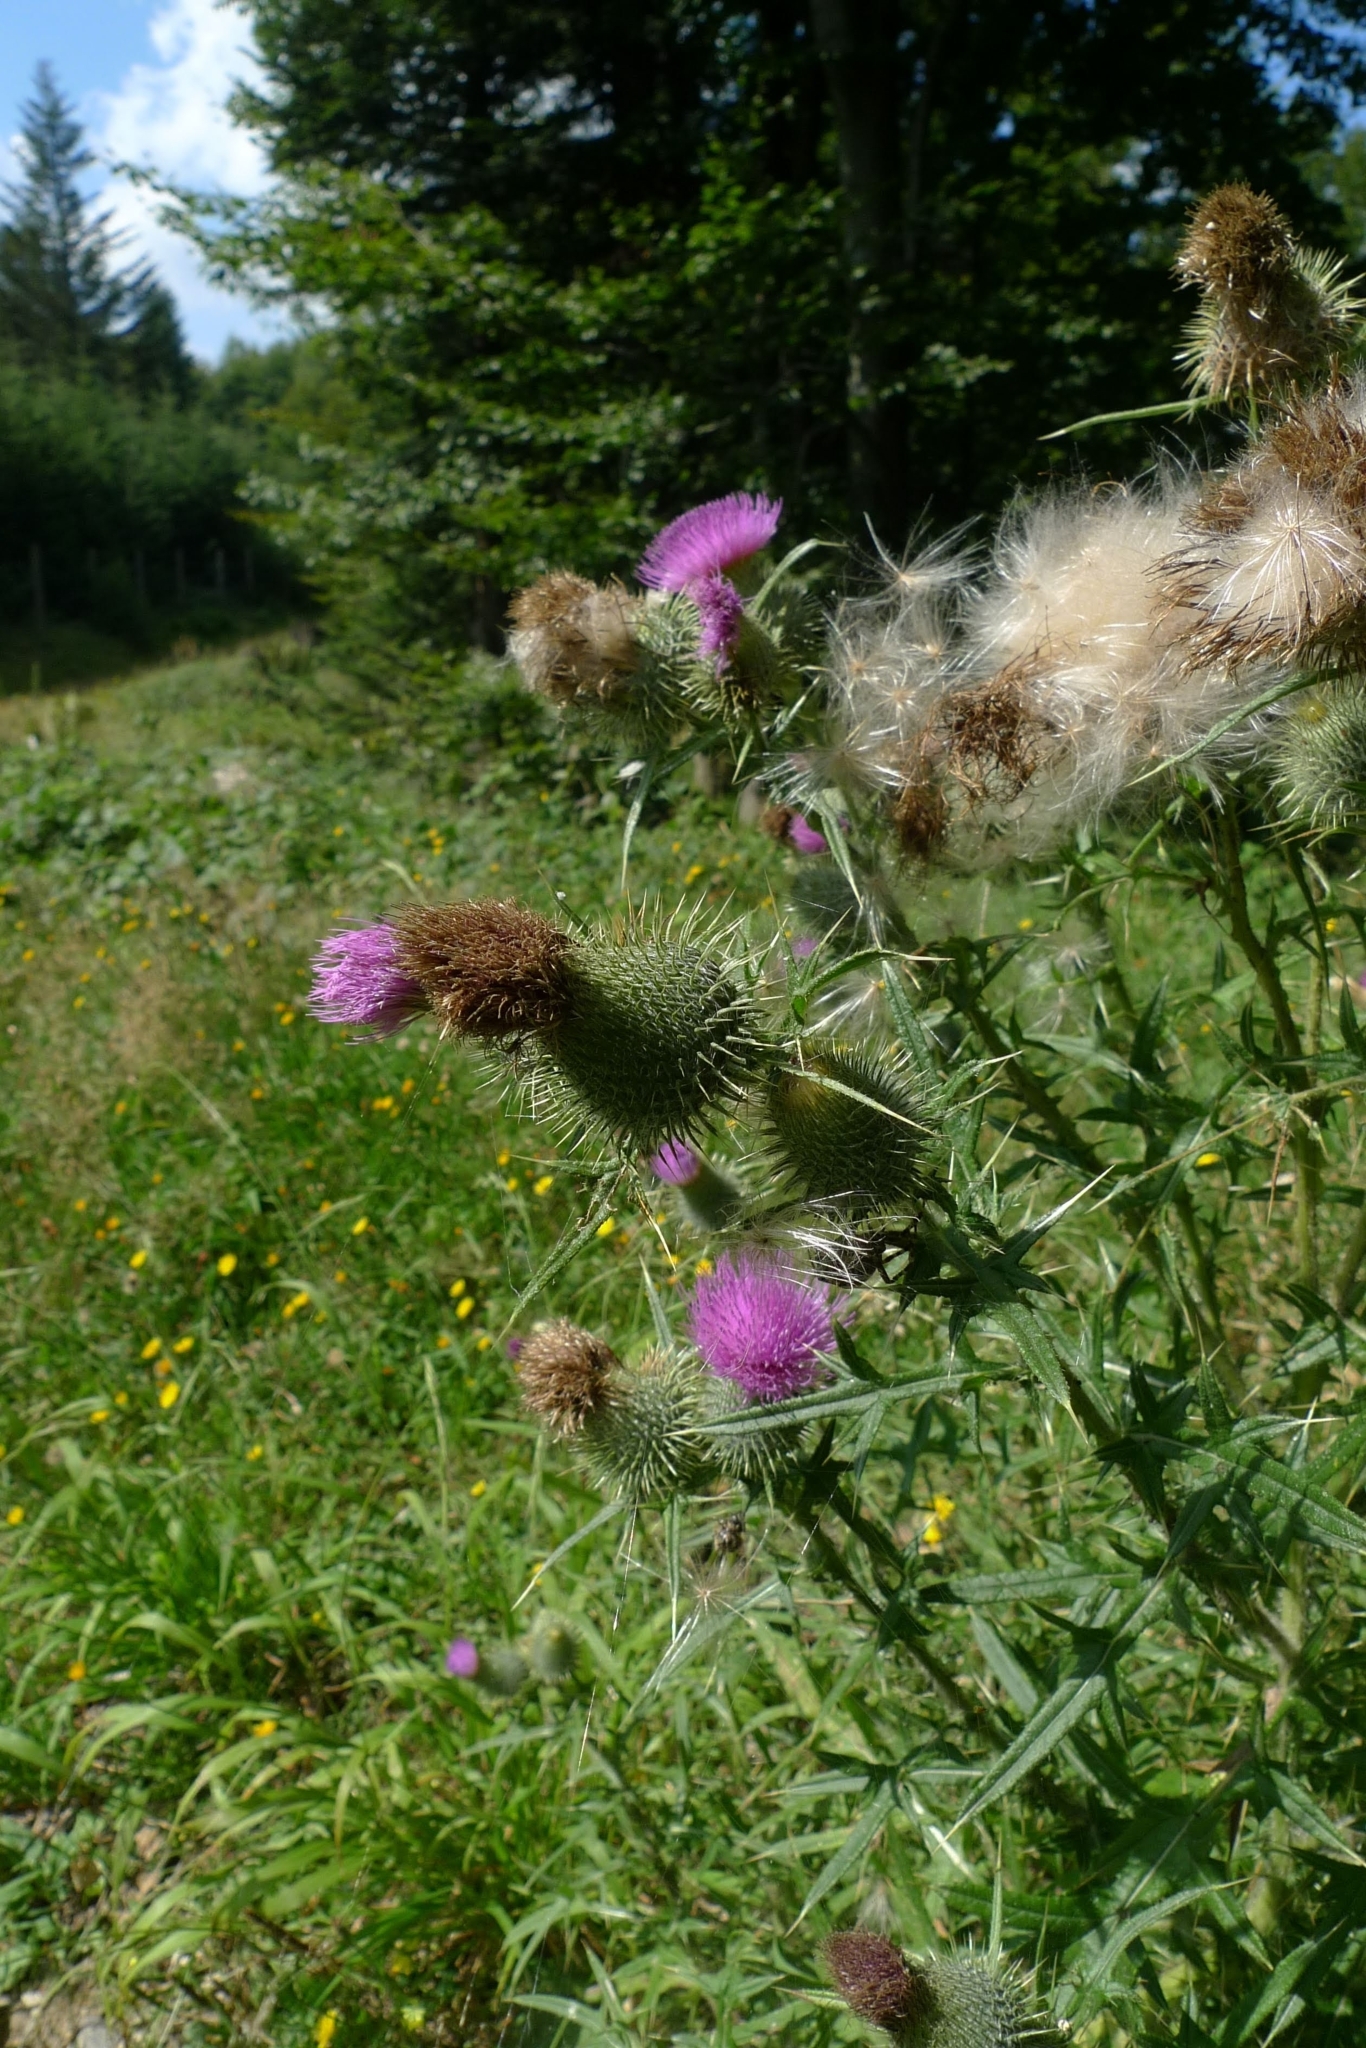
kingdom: Plantae
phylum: Tracheophyta
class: Magnoliopsida
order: Asterales
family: Asteraceae
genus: Cirsium
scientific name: Cirsium vulgare
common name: Bull thistle
